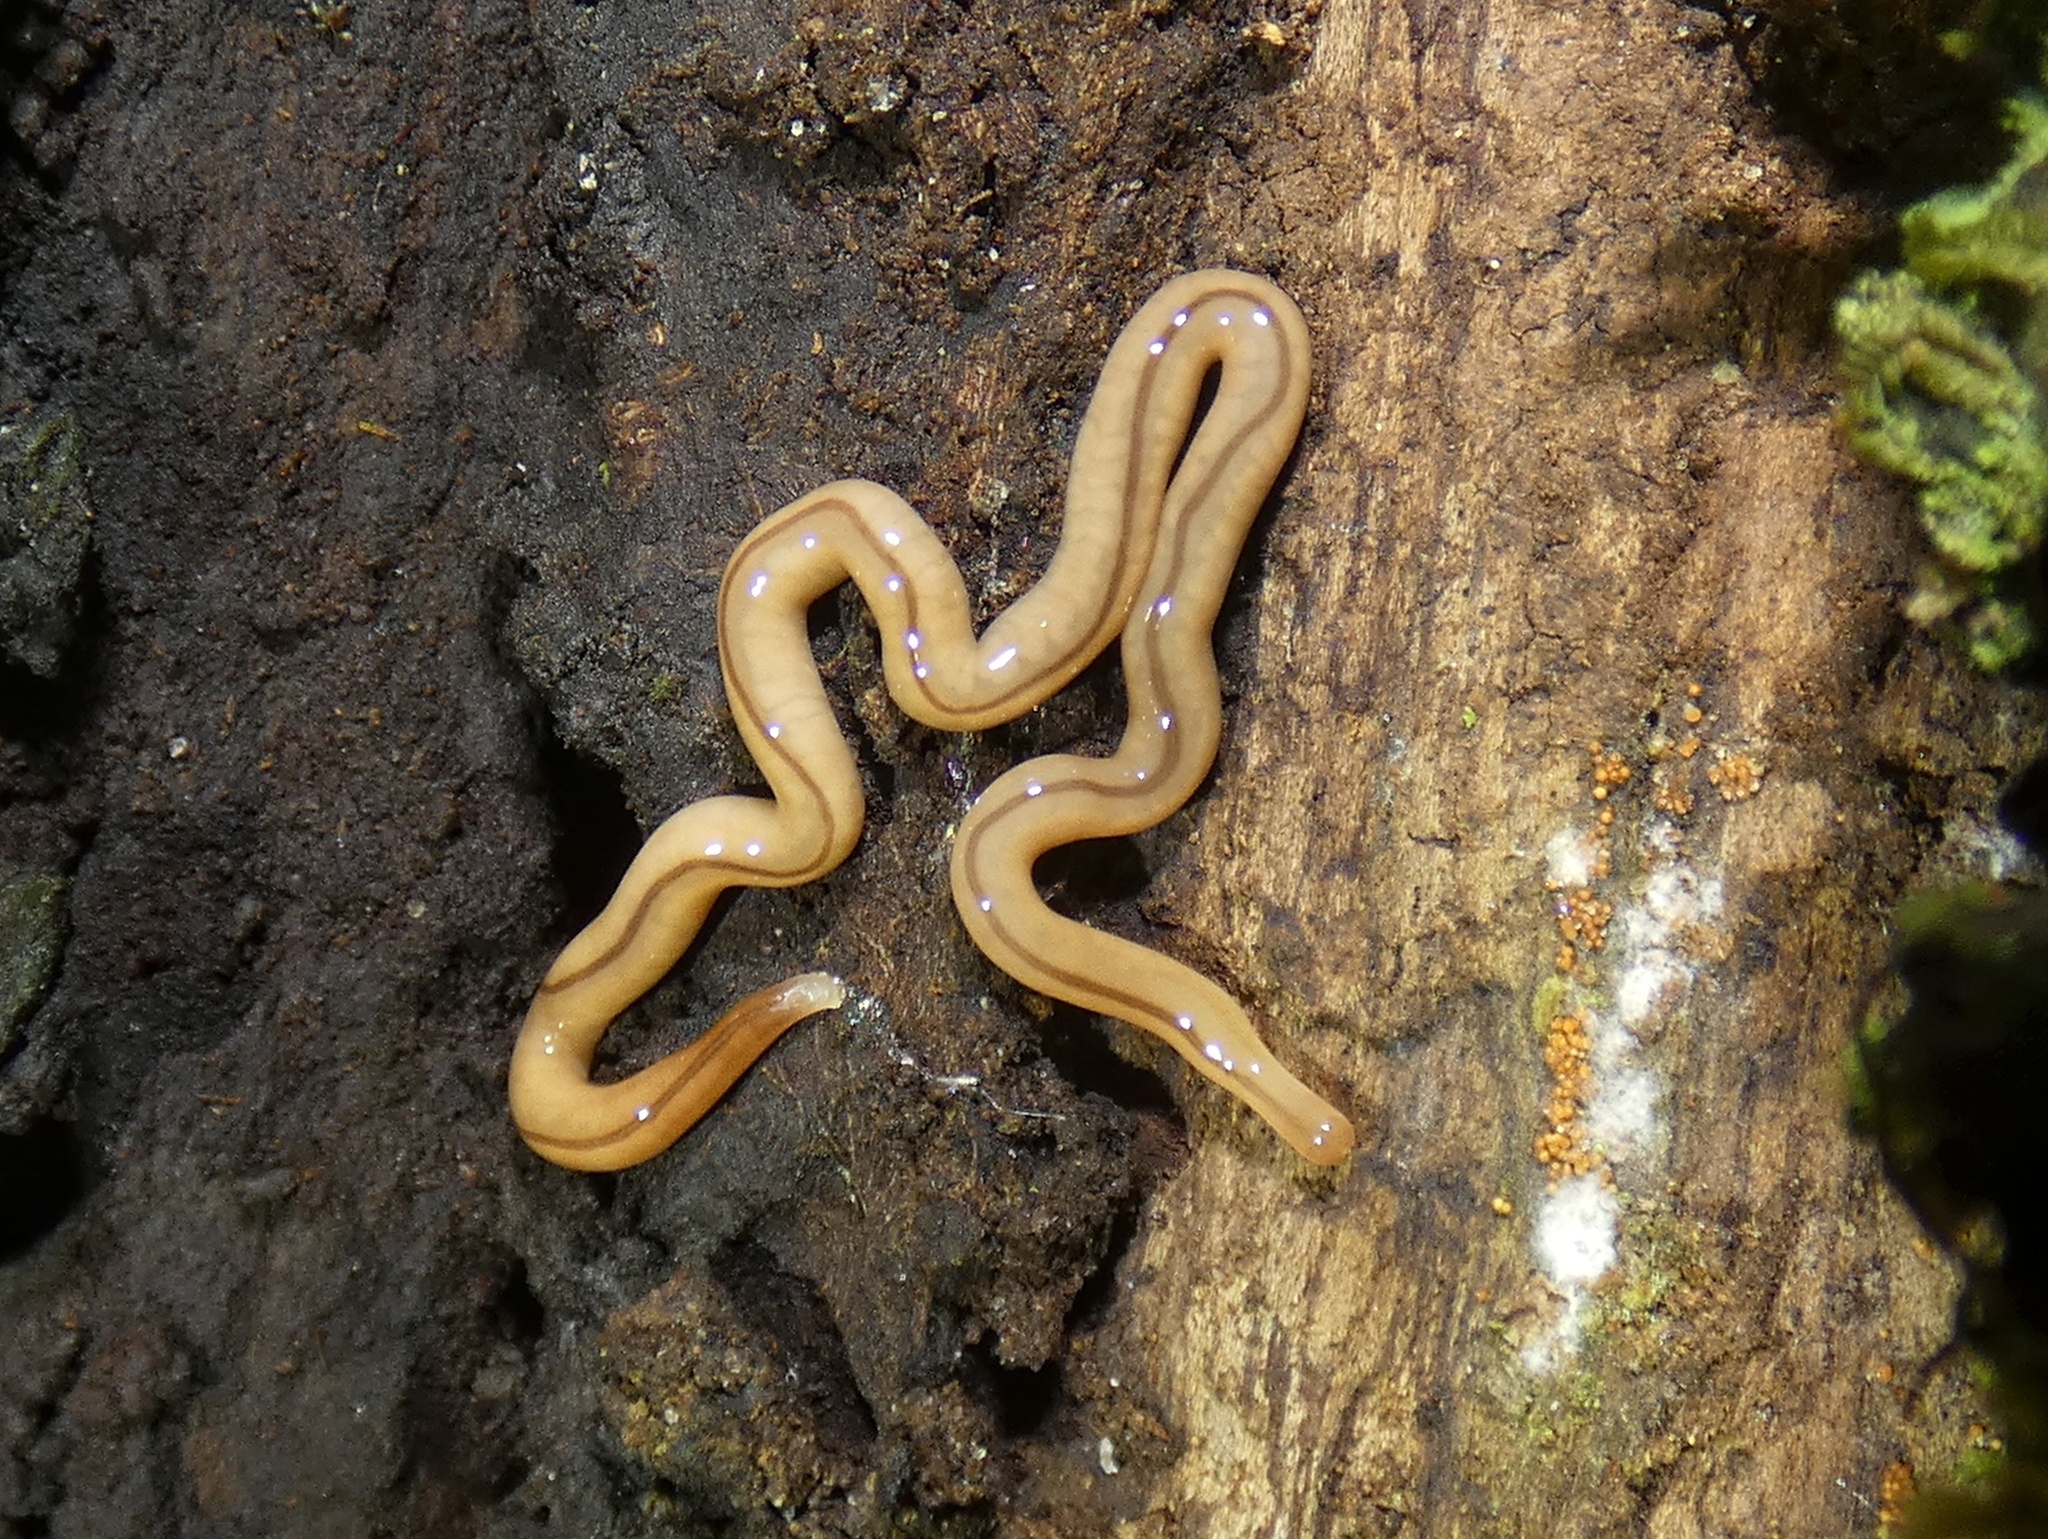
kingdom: Animalia
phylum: Nemertea
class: Hoplonemertea
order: Monostilifera
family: Prosorhochmidae
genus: Geonemertes
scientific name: Geonemertes pelaensis
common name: Land nemertean
